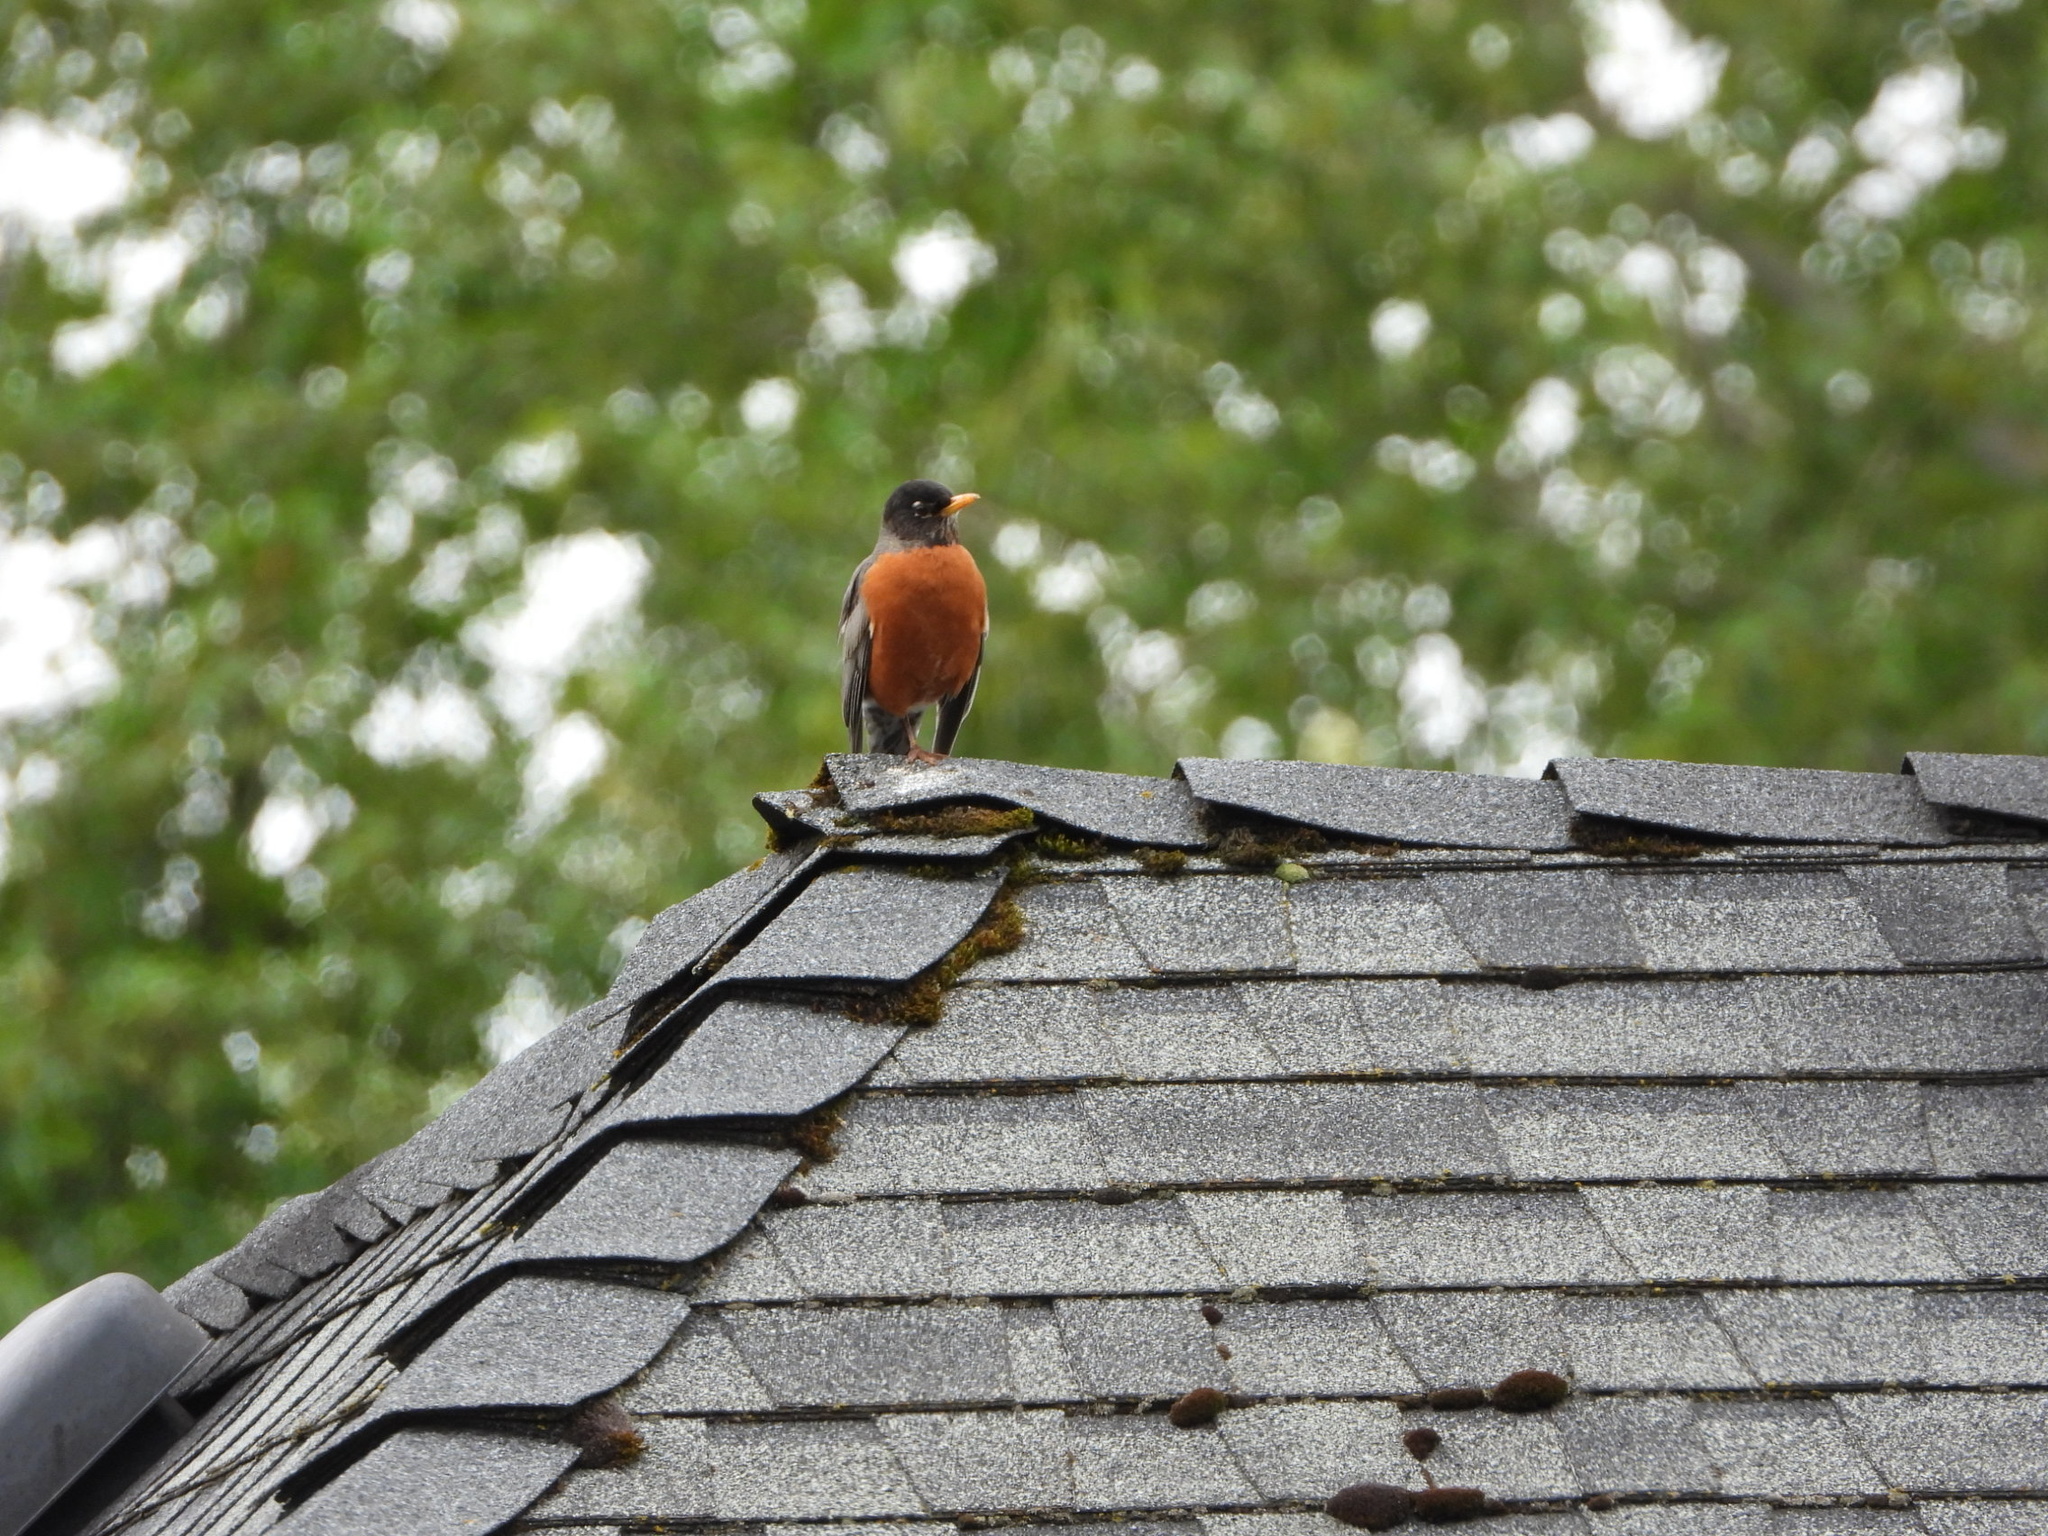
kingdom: Animalia
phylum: Chordata
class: Aves
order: Passeriformes
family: Turdidae
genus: Turdus
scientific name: Turdus migratorius
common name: American robin
